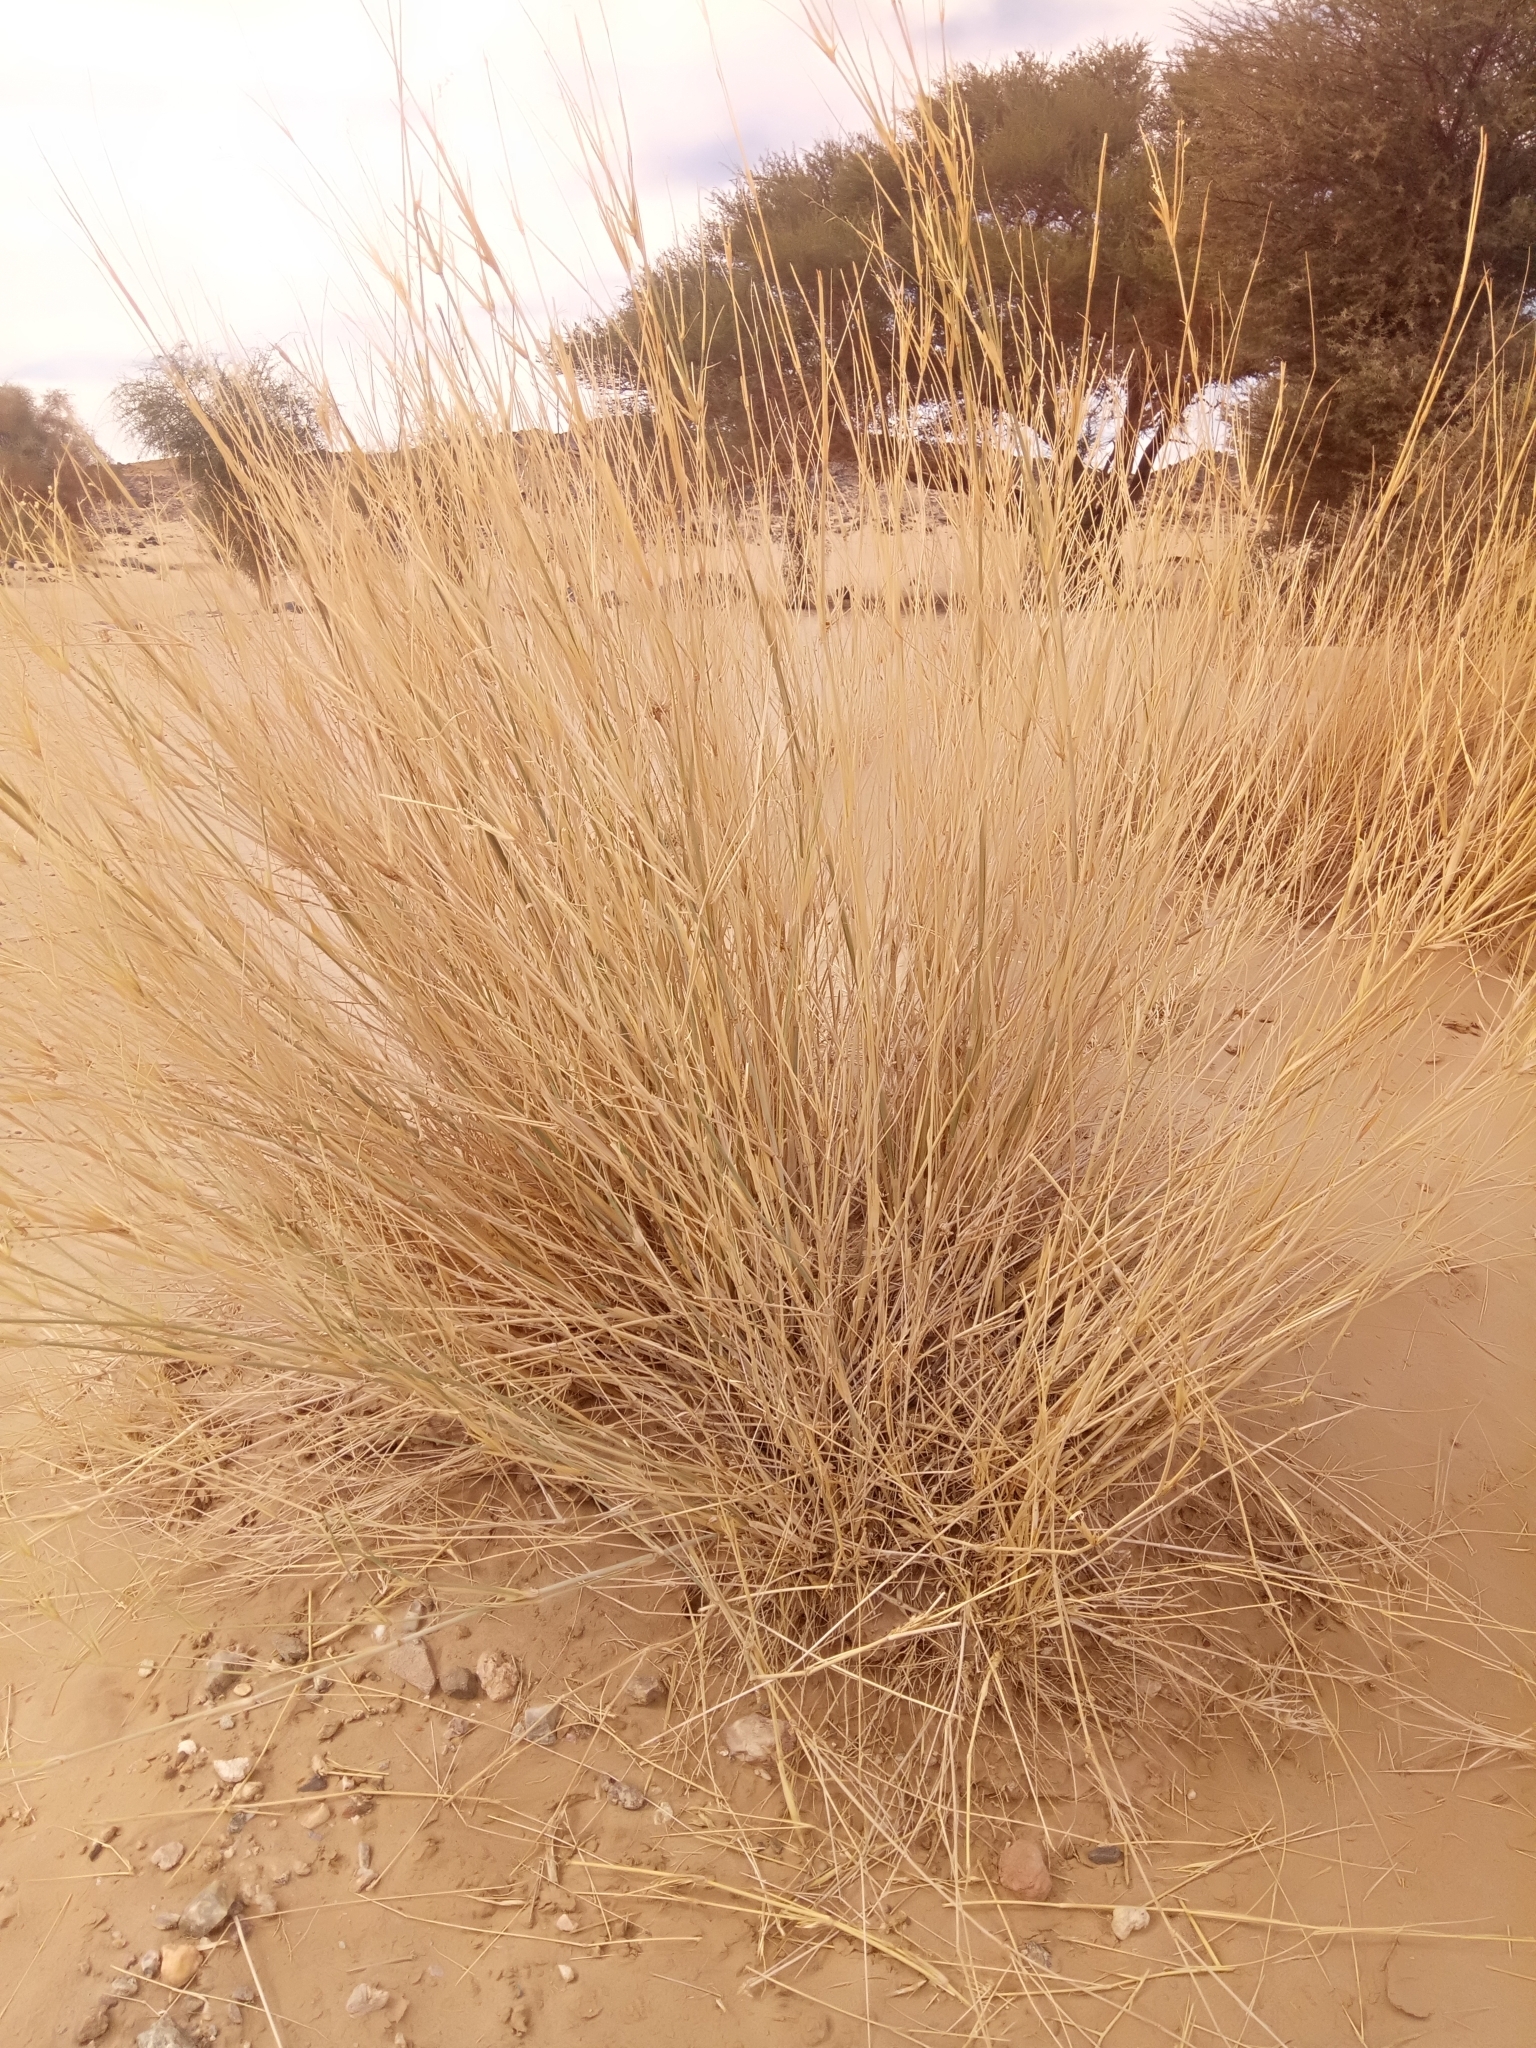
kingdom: Plantae
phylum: Tracheophyta
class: Liliopsida
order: Poales
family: Poaceae
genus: Panicum
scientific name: Panicum turgidum
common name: Desert grass
